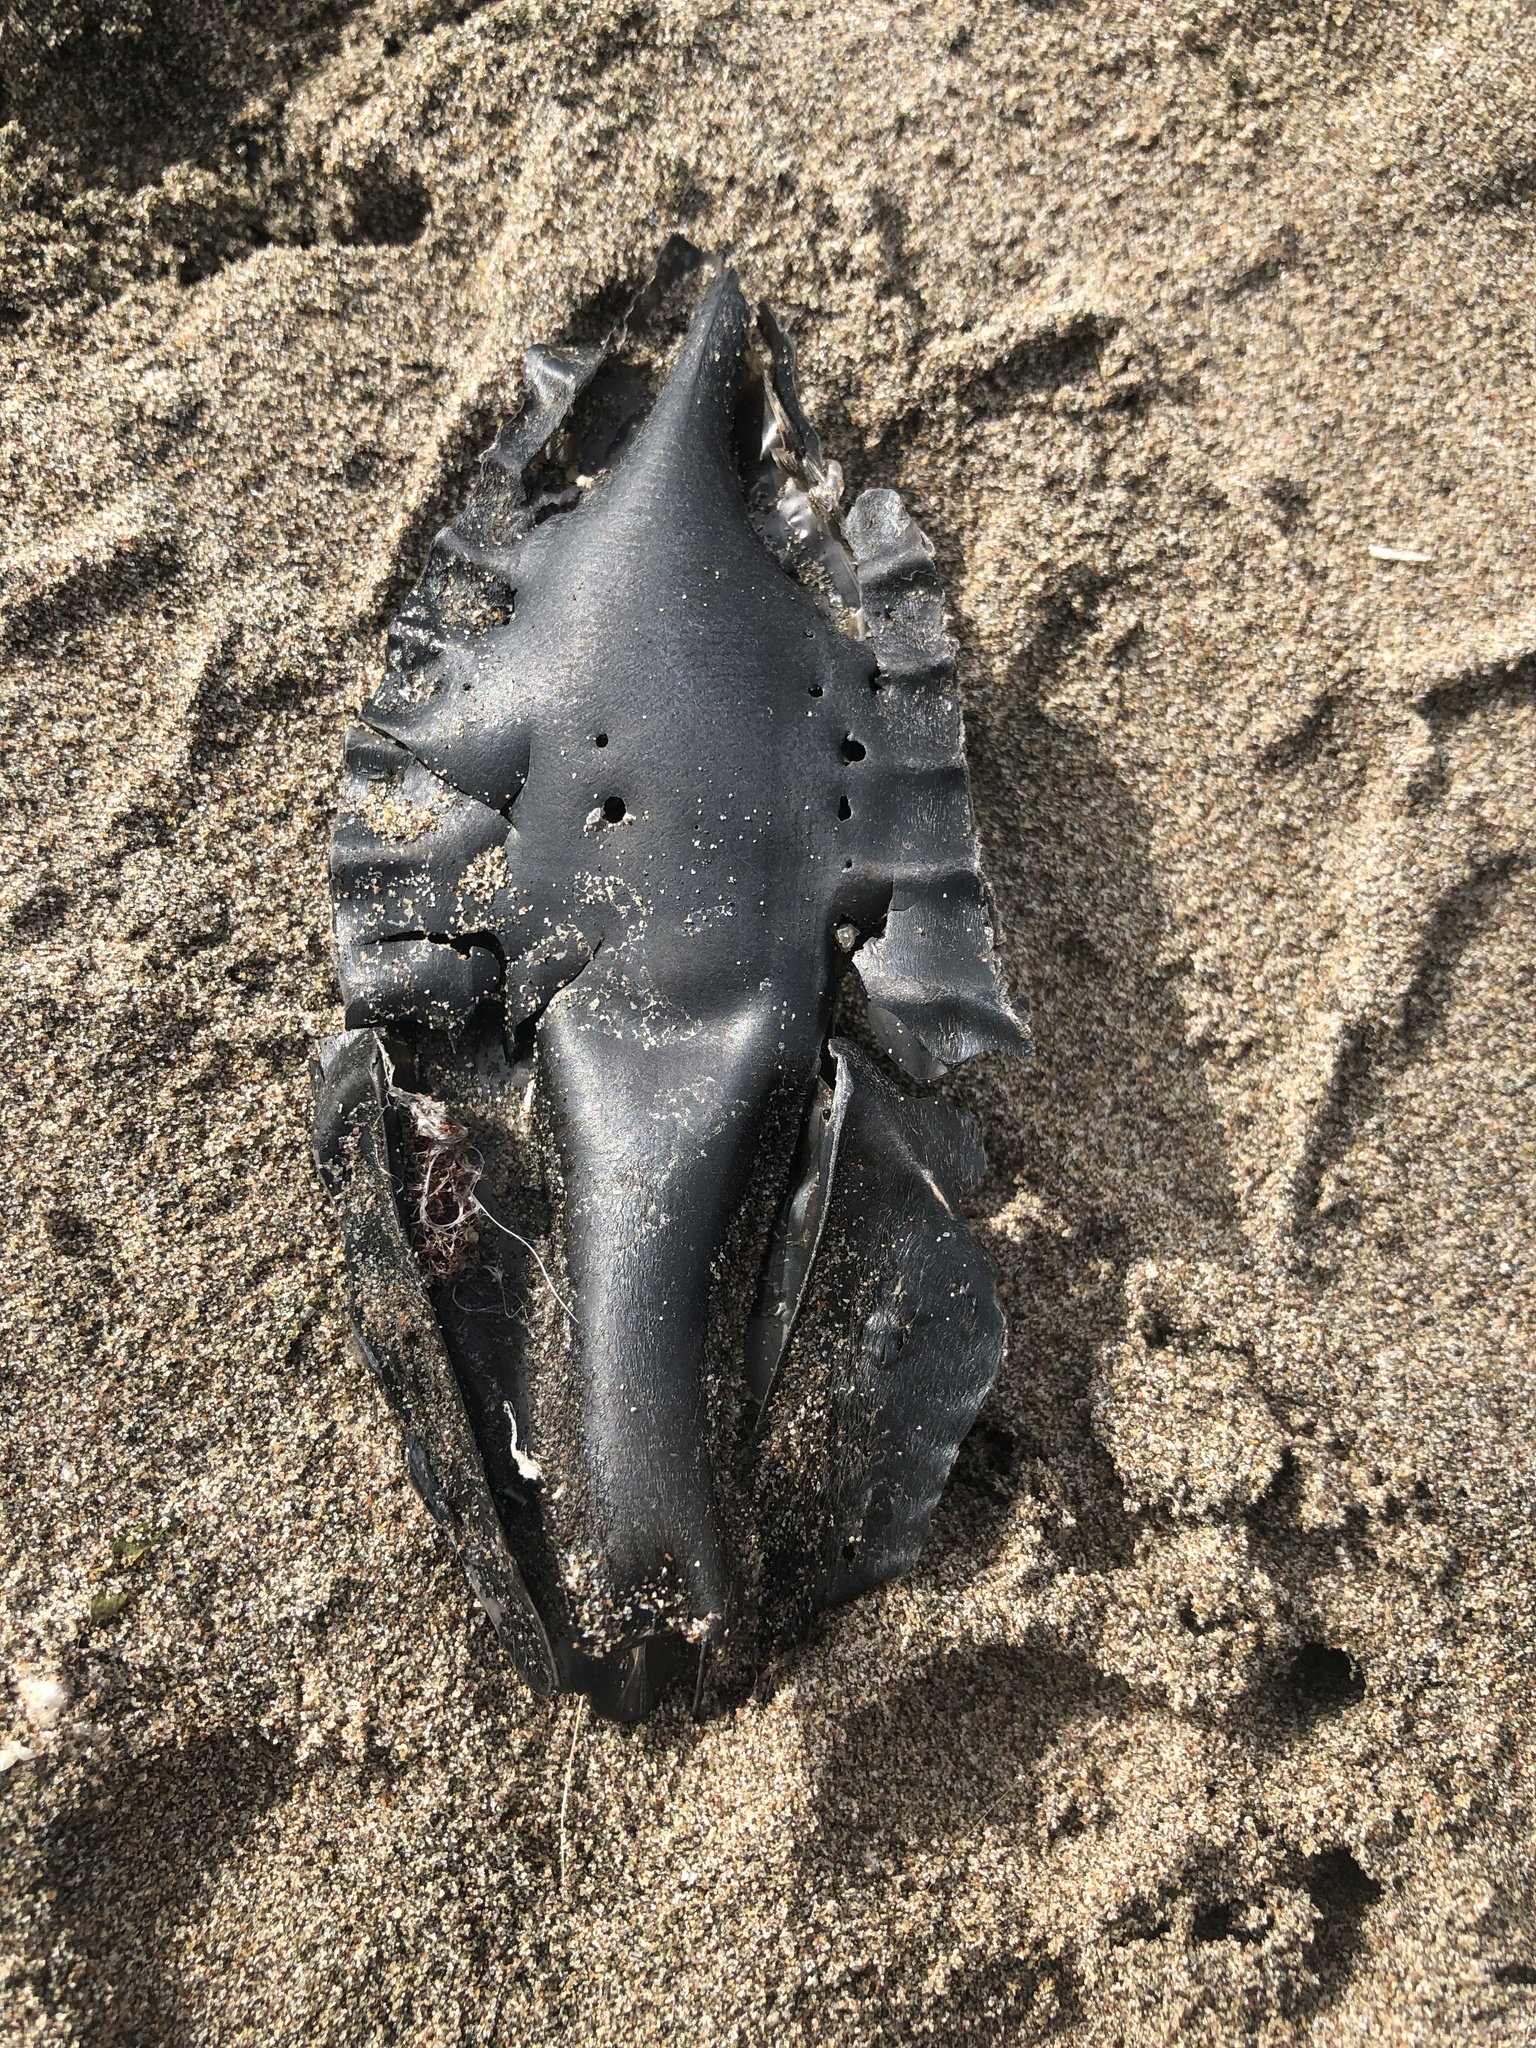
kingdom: Animalia
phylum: Chordata
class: Holocephali
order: Chimaeriformes
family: Callorhinchidae
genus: Callorhinchus
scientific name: Callorhinchus callorynchus
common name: Elephant fish
